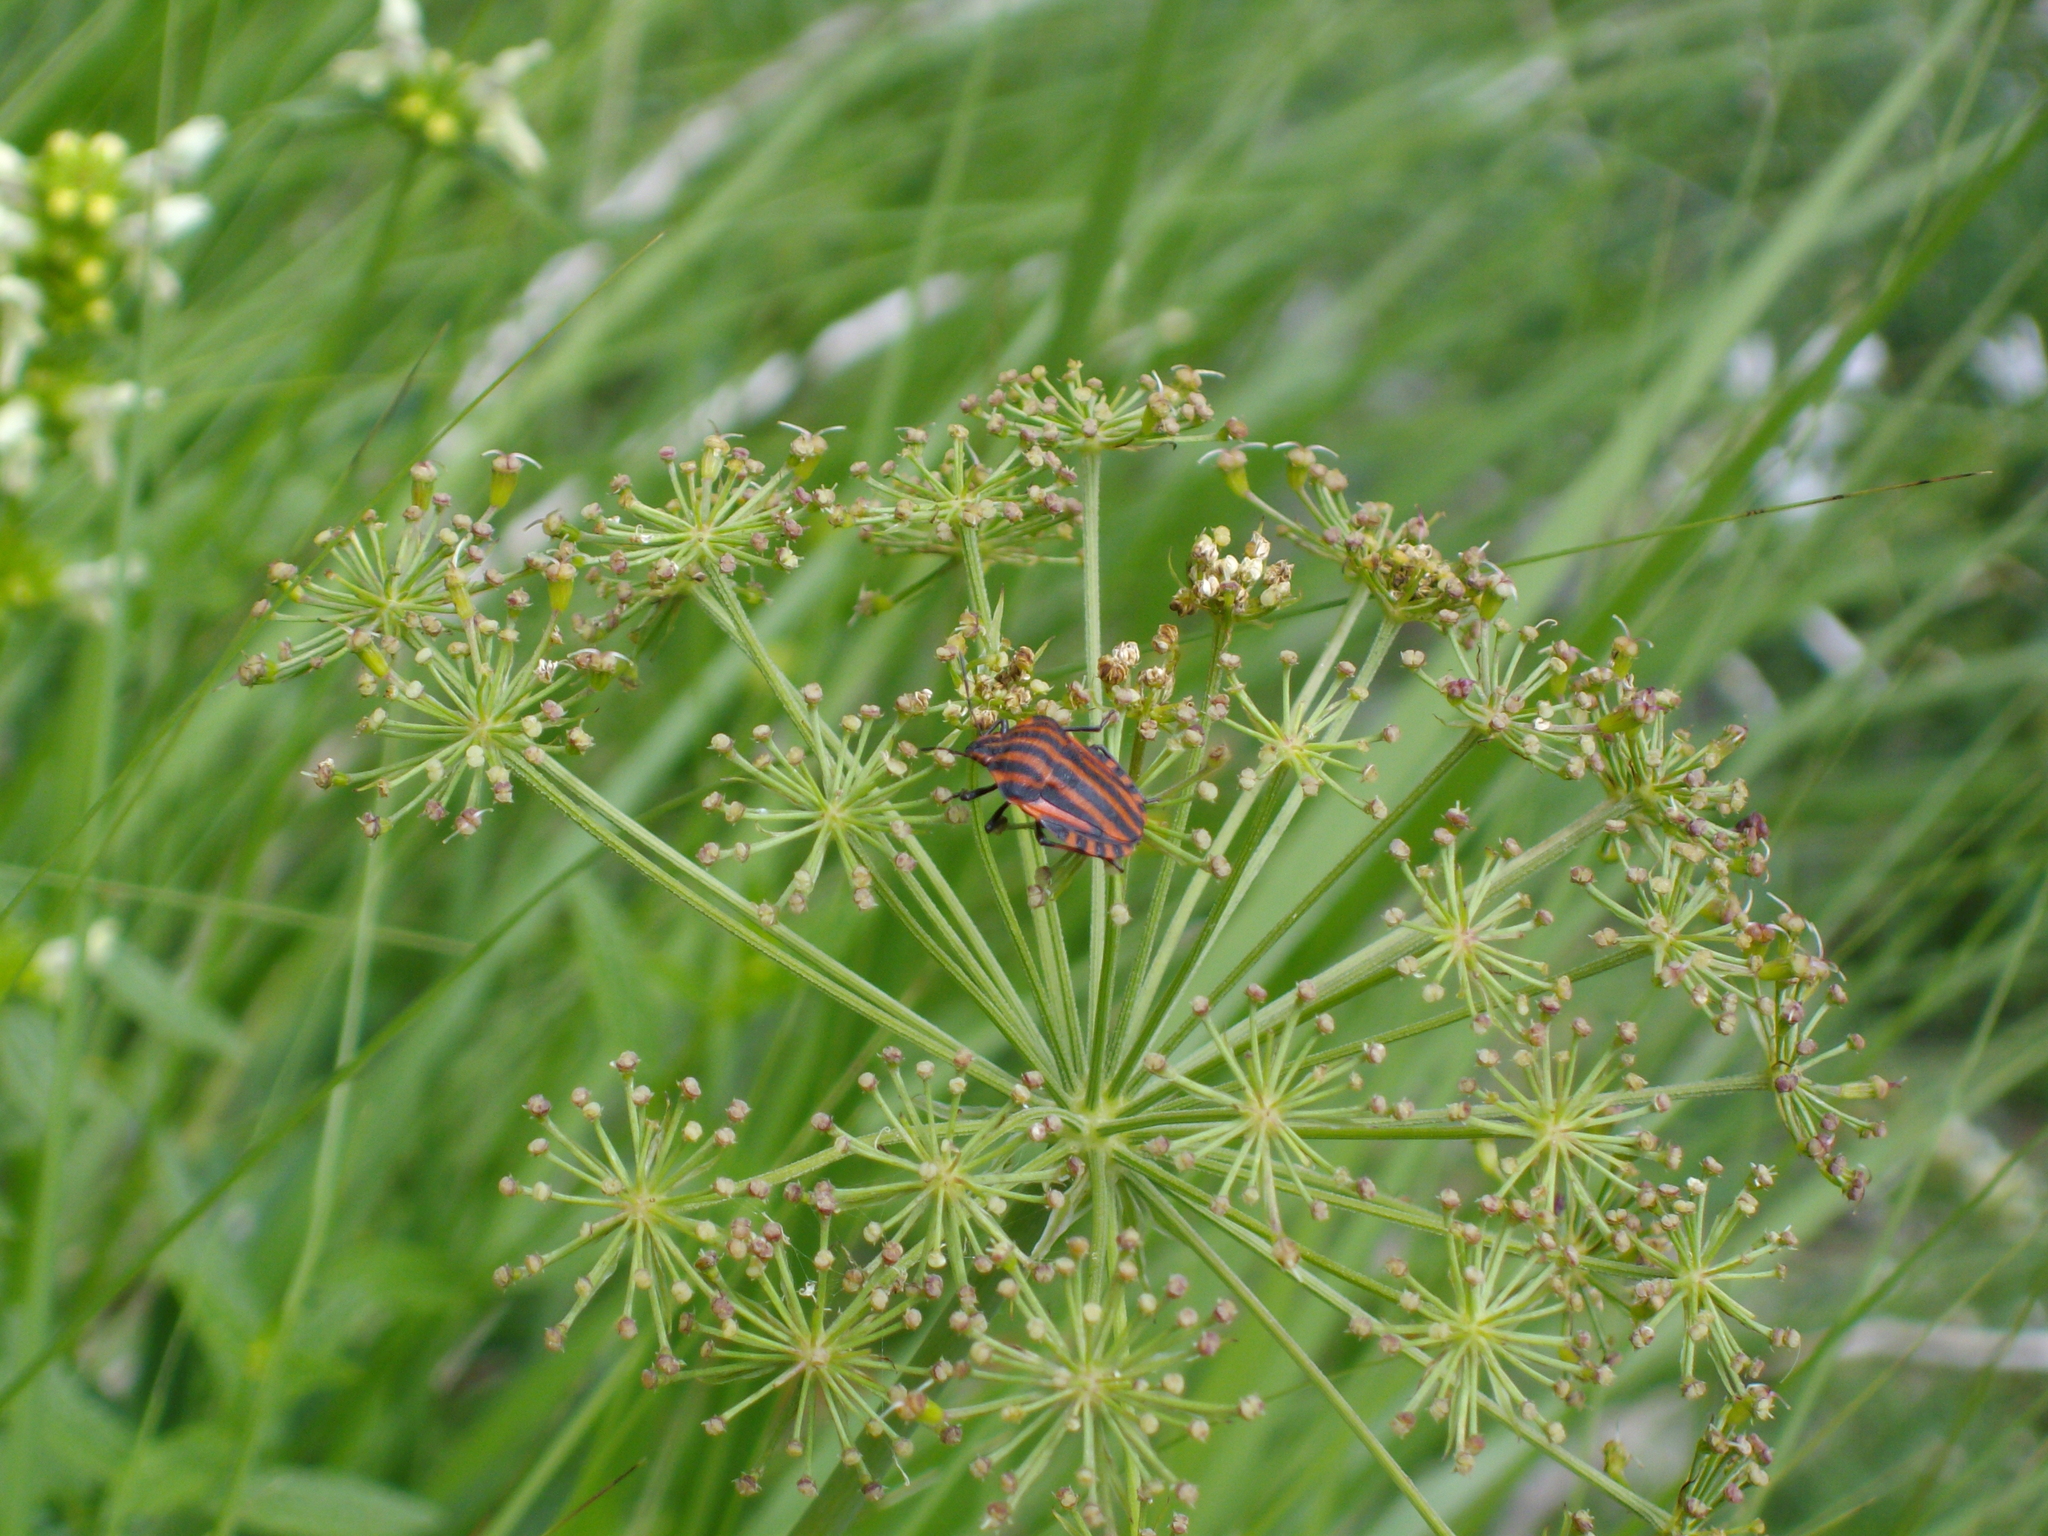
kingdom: Animalia
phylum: Arthropoda
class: Insecta
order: Hemiptera
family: Pentatomidae
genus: Graphosoma
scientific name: Graphosoma italicum
